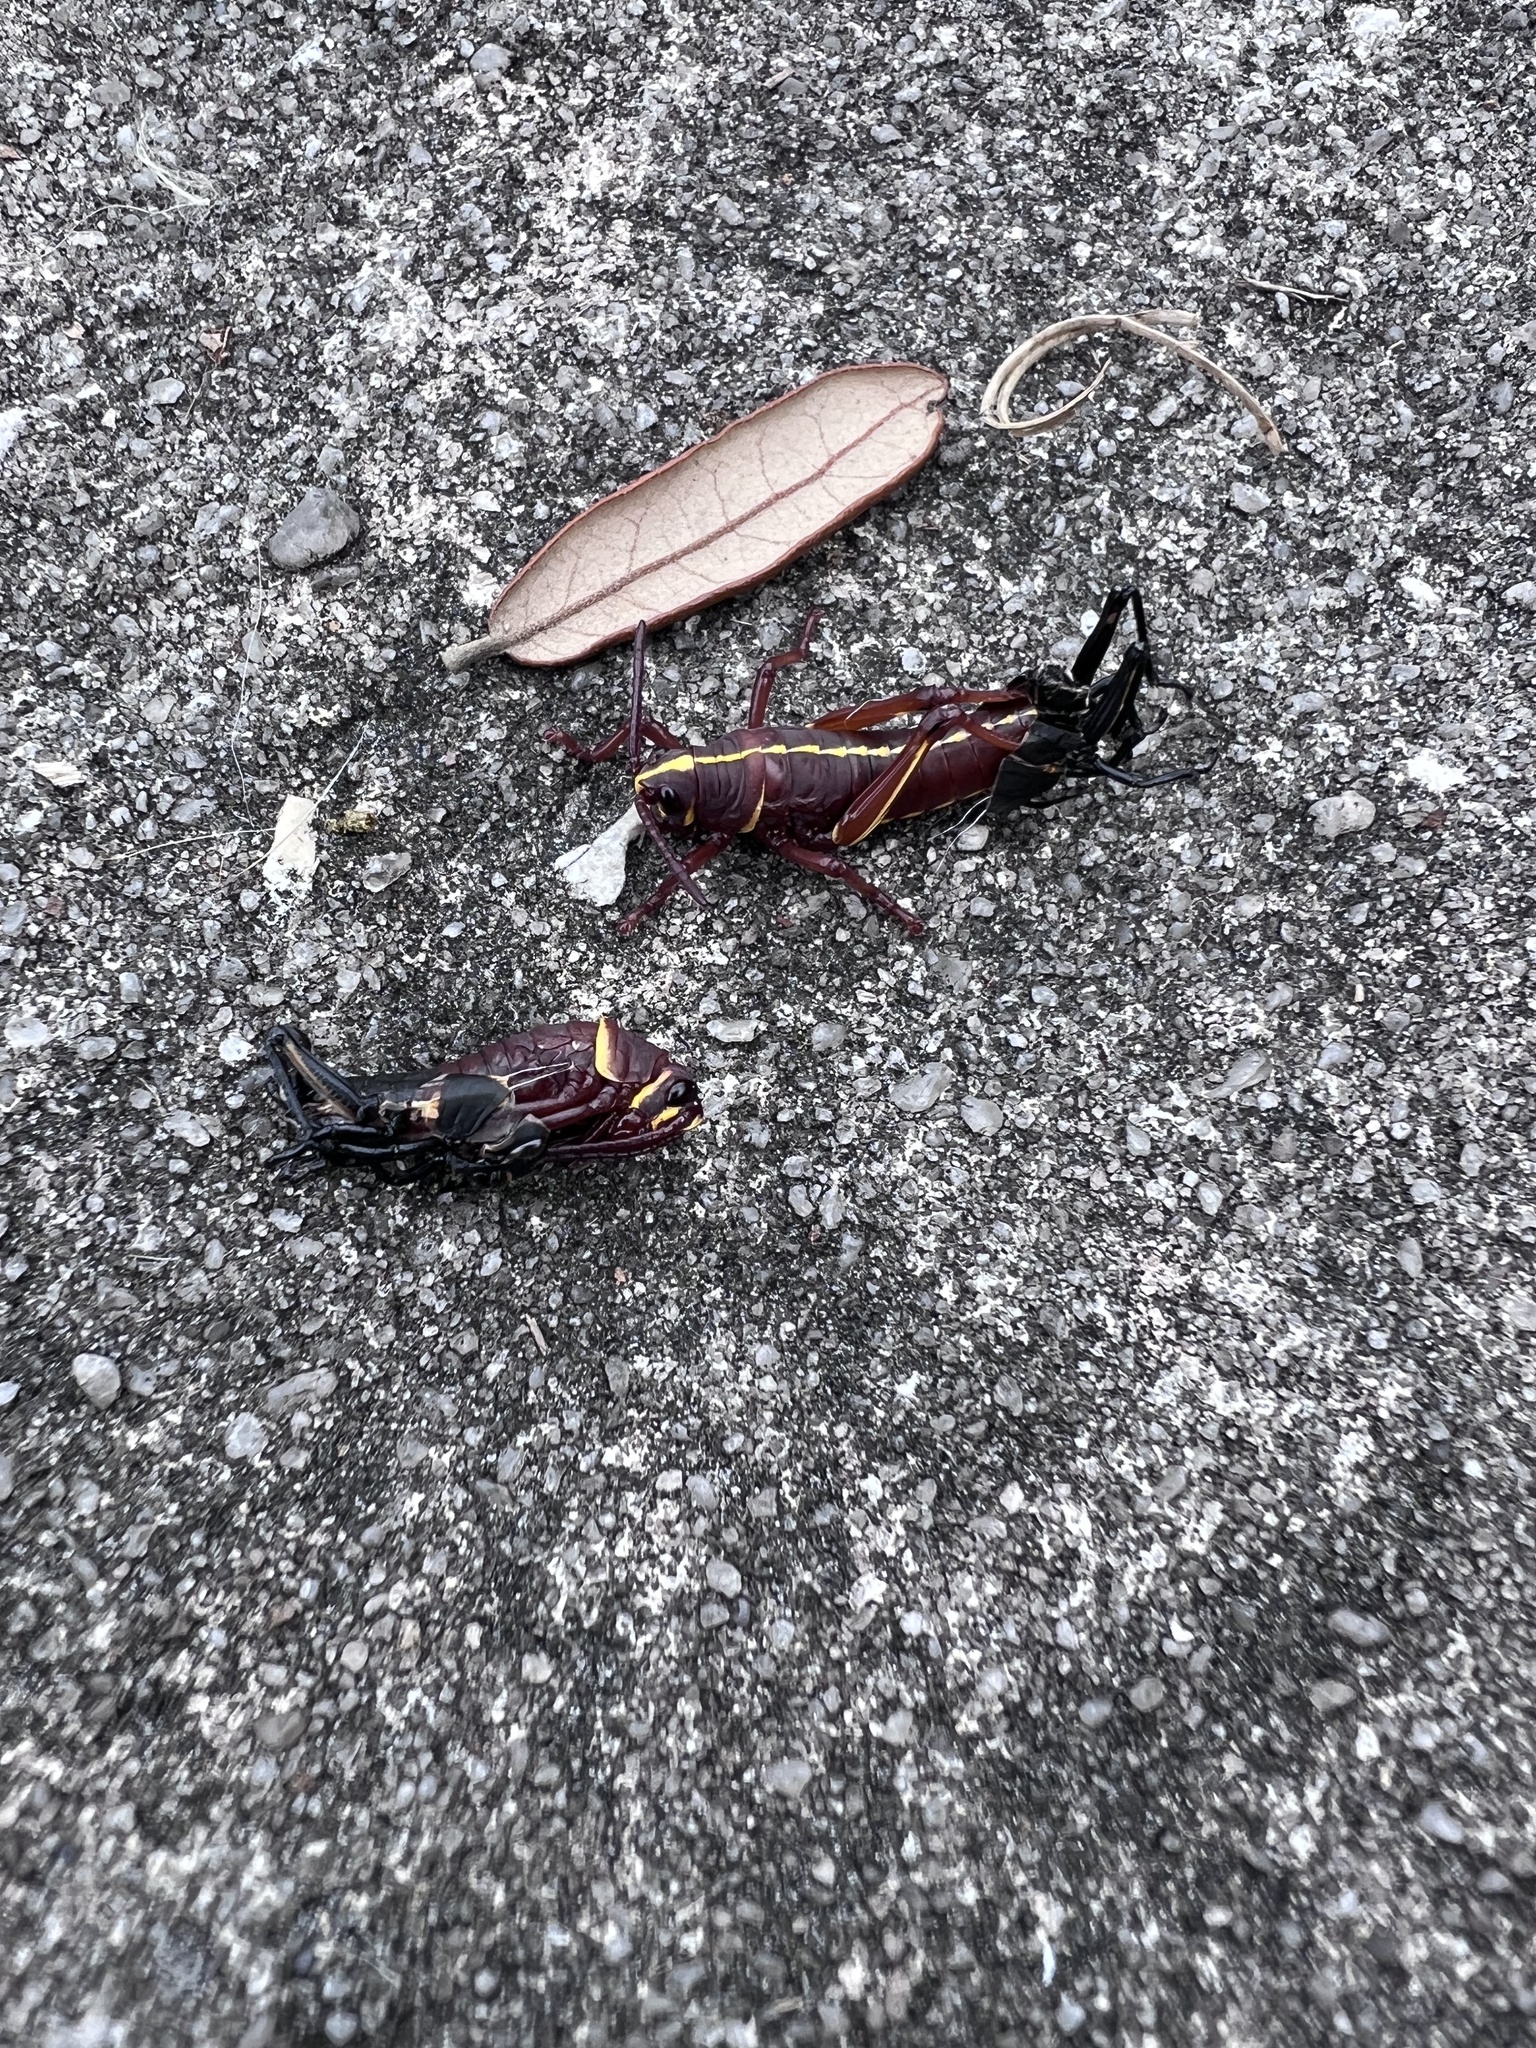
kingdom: Animalia
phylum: Arthropoda
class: Insecta
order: Orthoptera
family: Romaleidae
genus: Romalea
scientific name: Romalea microptera
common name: Eastern lubber grasshopper
